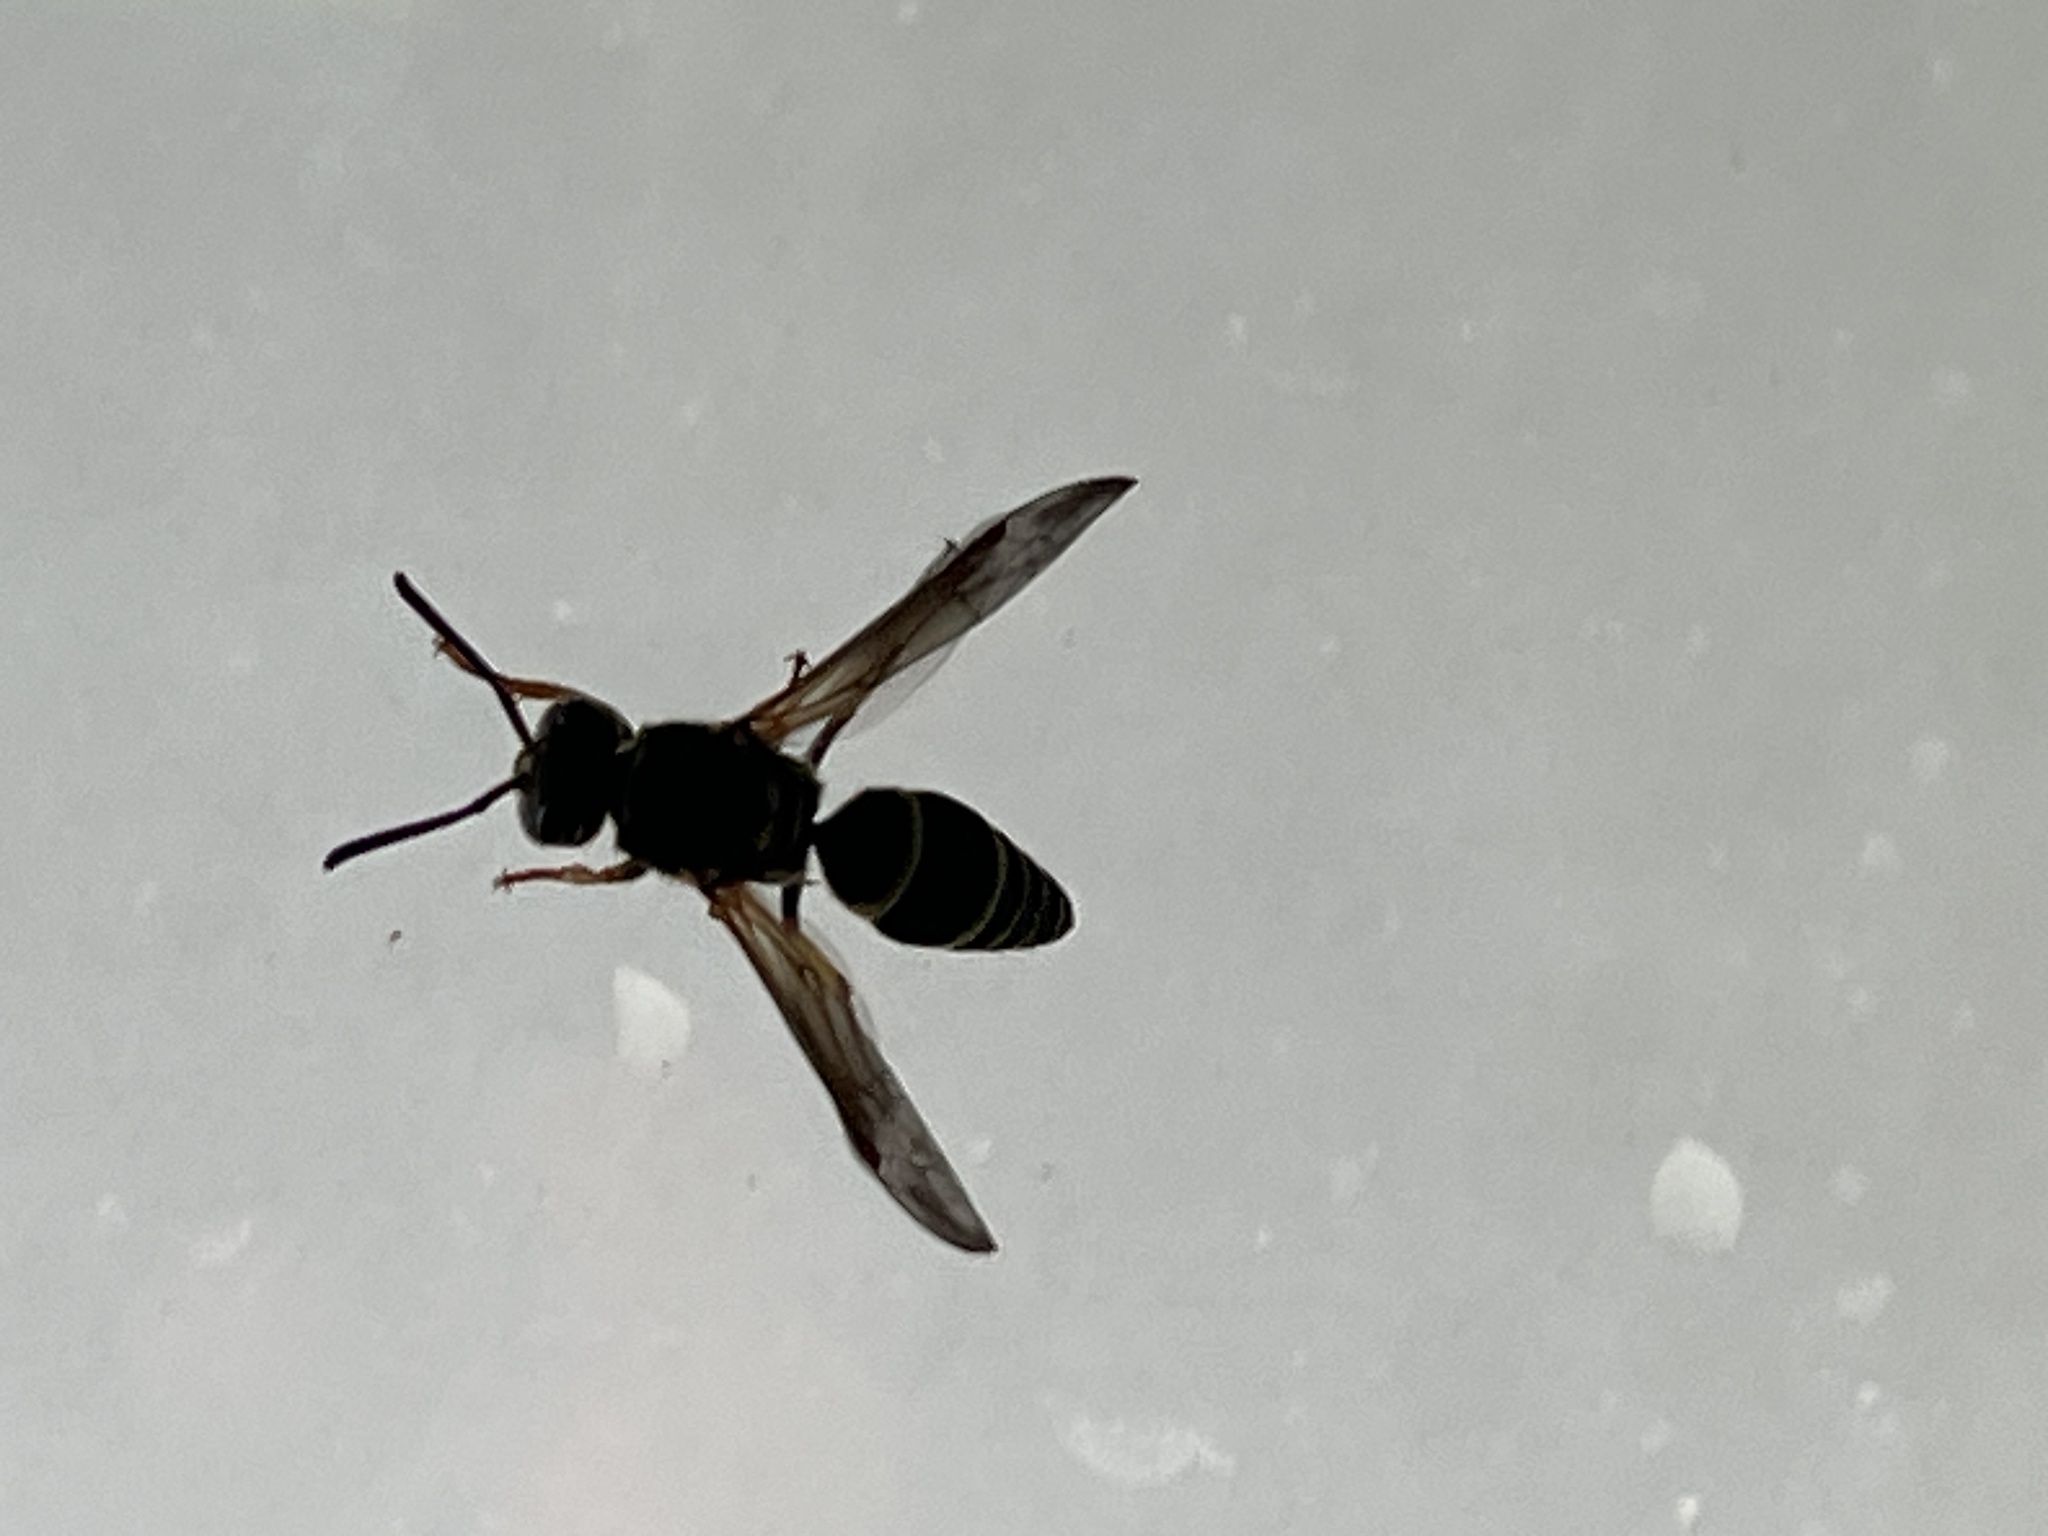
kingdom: Animalia
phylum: Arthropoda
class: Insecta
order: Hymenoptera
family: Vespidae
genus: Ancistrocerus
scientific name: Ancistrocerus catskill
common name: Vespid wasp
